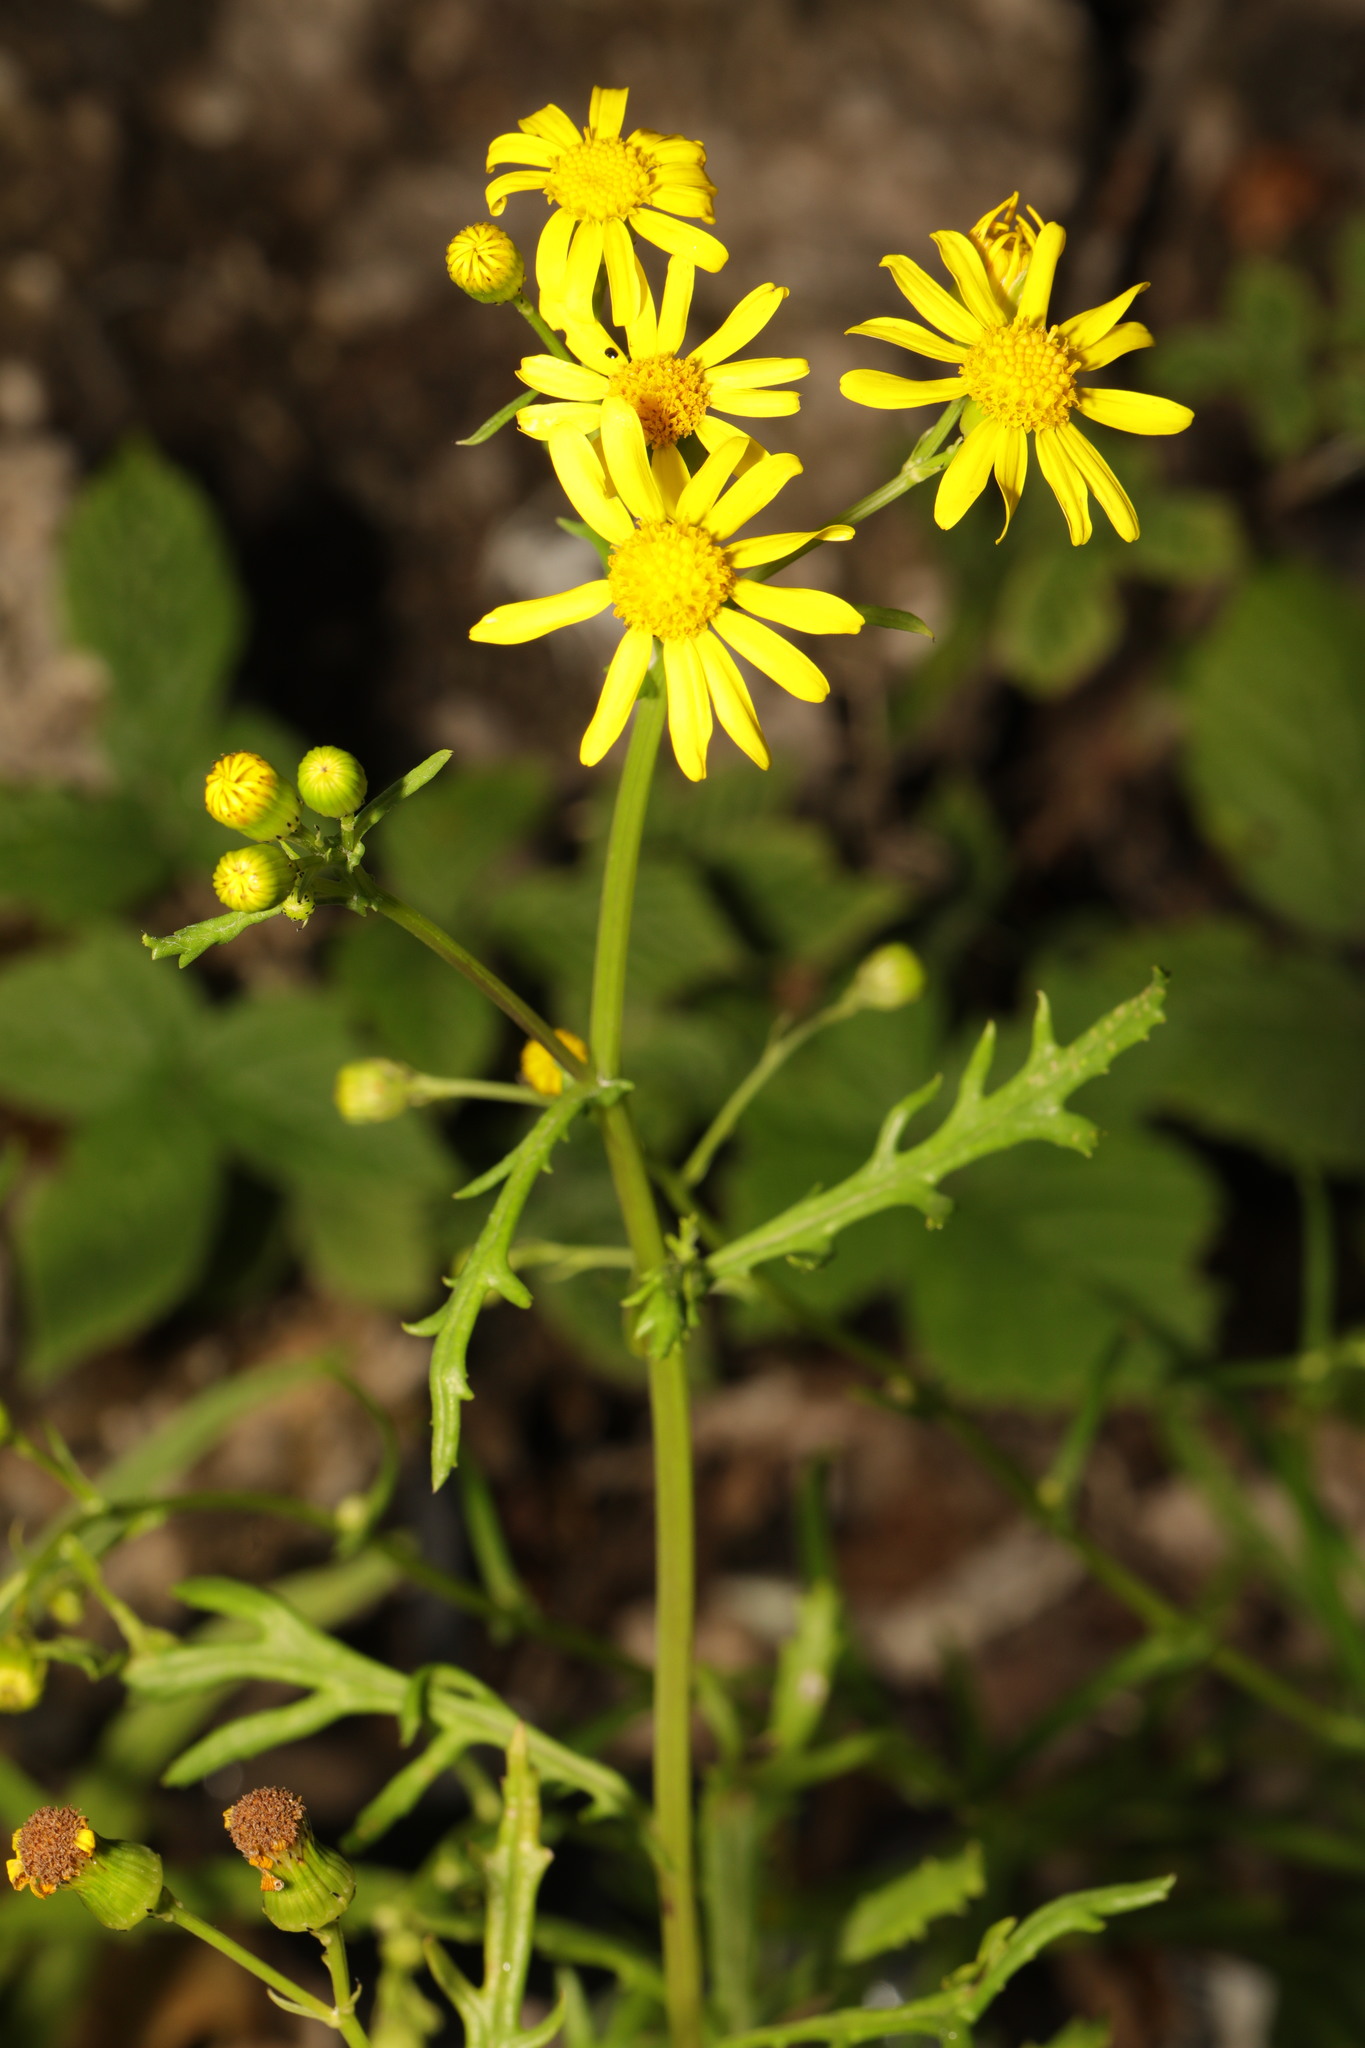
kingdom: Plantae
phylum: Tracheophyta
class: Magnoliopsida
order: Asterales
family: Asteraceae
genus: Senecio
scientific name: Senecio squalidus
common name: Oxford ragwort
